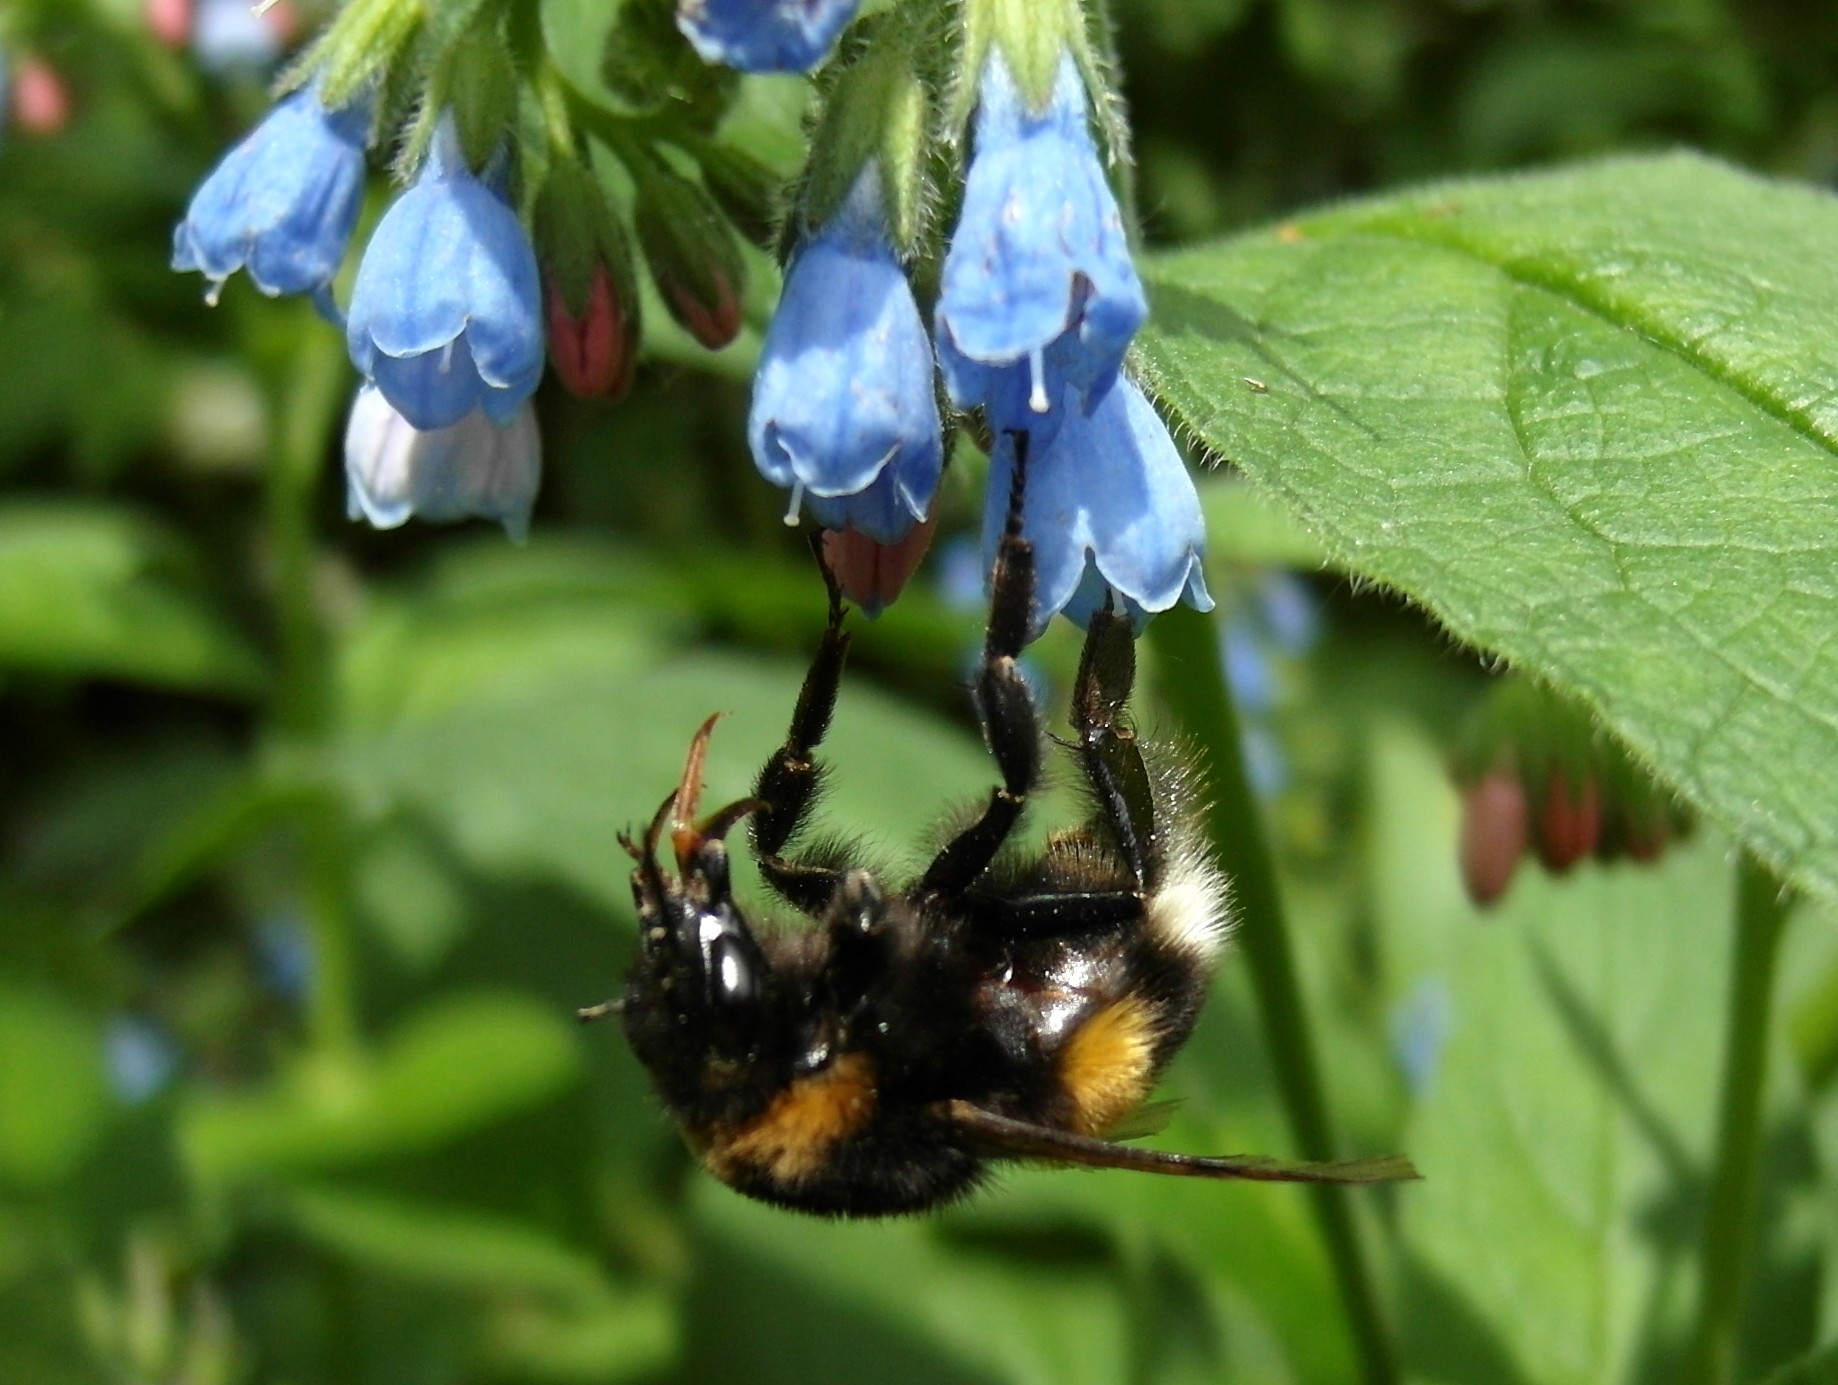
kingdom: Plantae
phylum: Tracheophyta
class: Magnoliopsida
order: Boraginales
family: Boraginaceae
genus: Symphytum
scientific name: Symphytum caucasicum
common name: Caucasian comfrey
